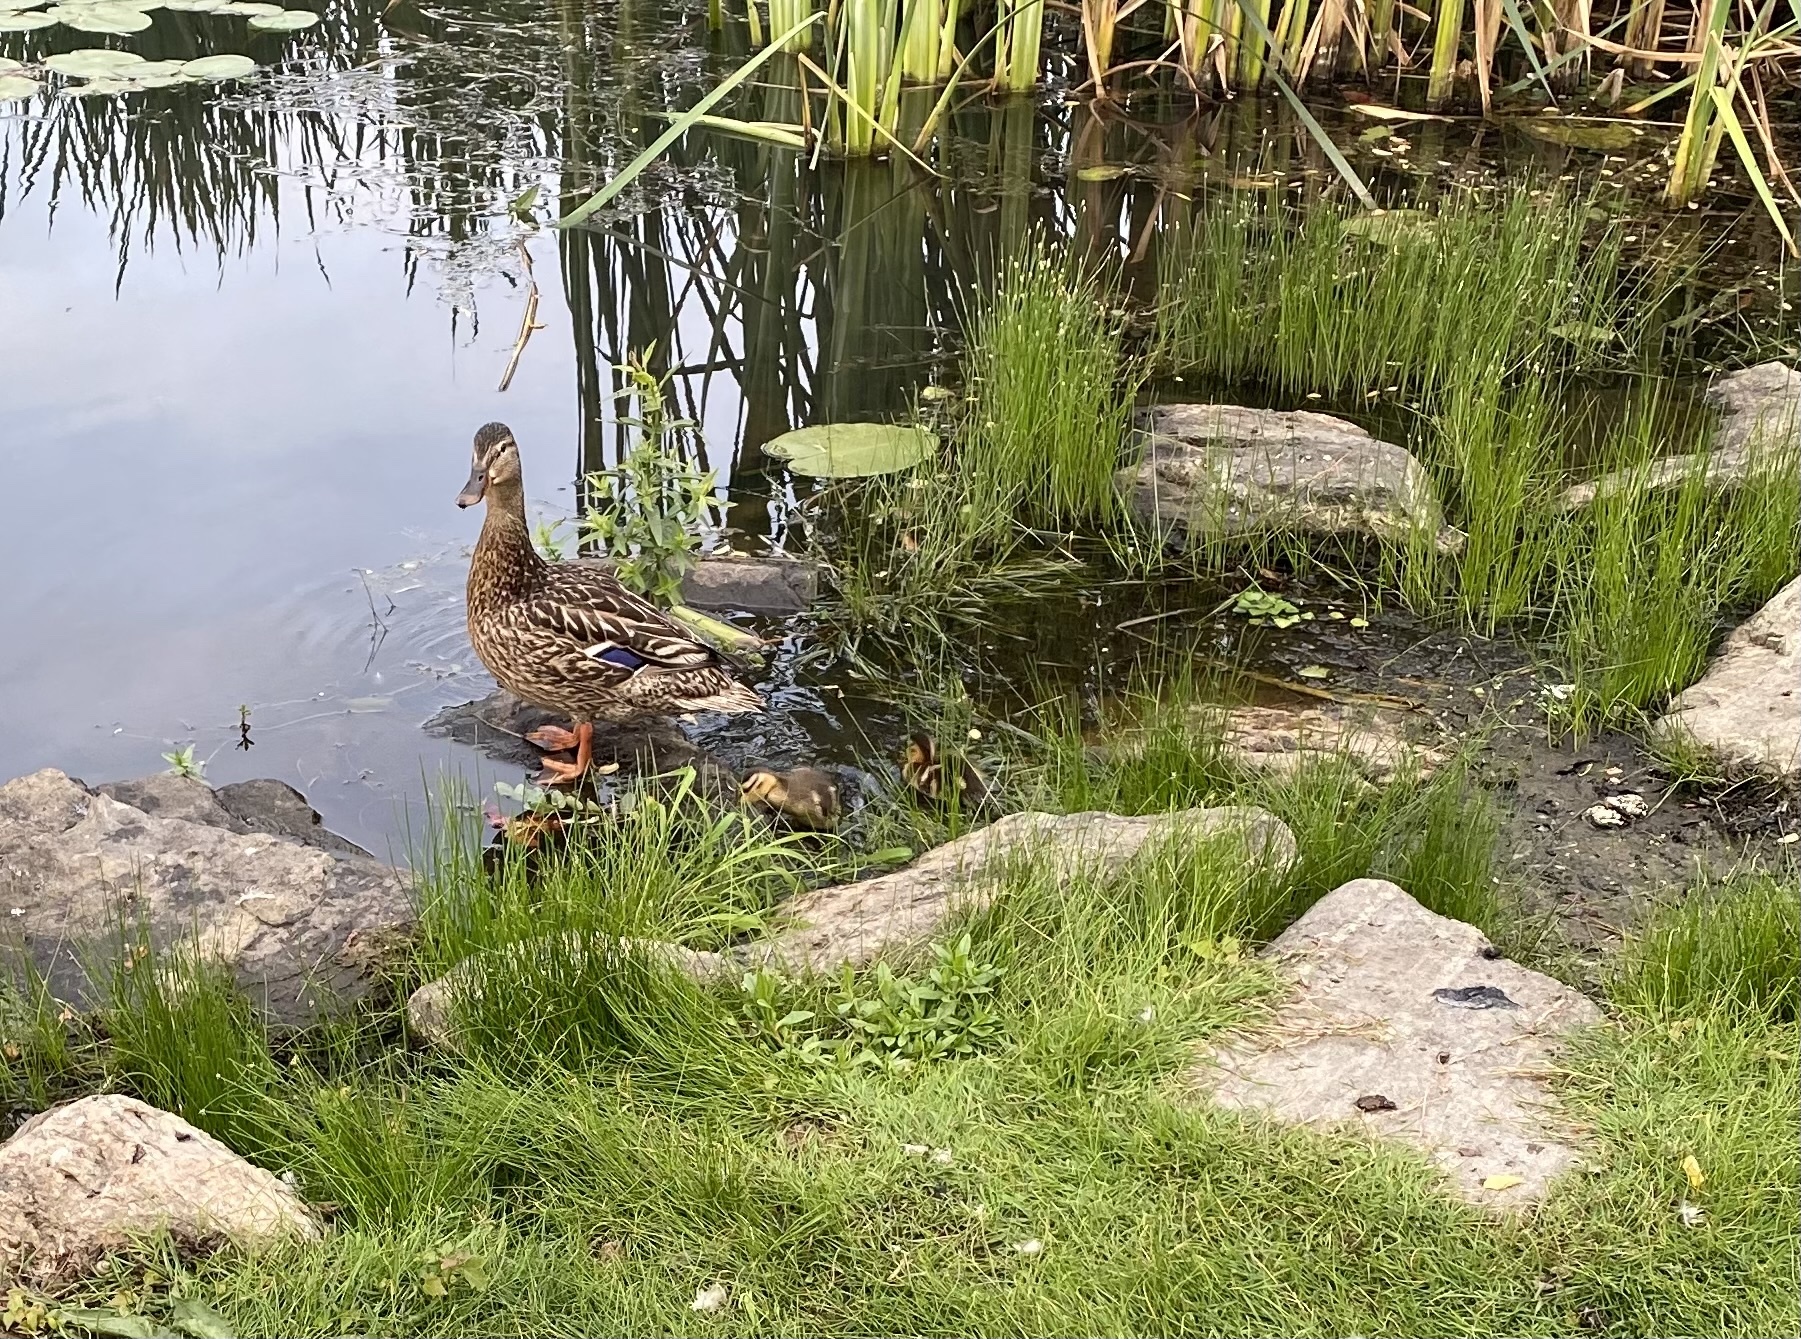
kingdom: Animalia
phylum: Chordata
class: Aves
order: Anseriformes
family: Anatidae
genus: Anas
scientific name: Anas platyrhynchos
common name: Mallard
